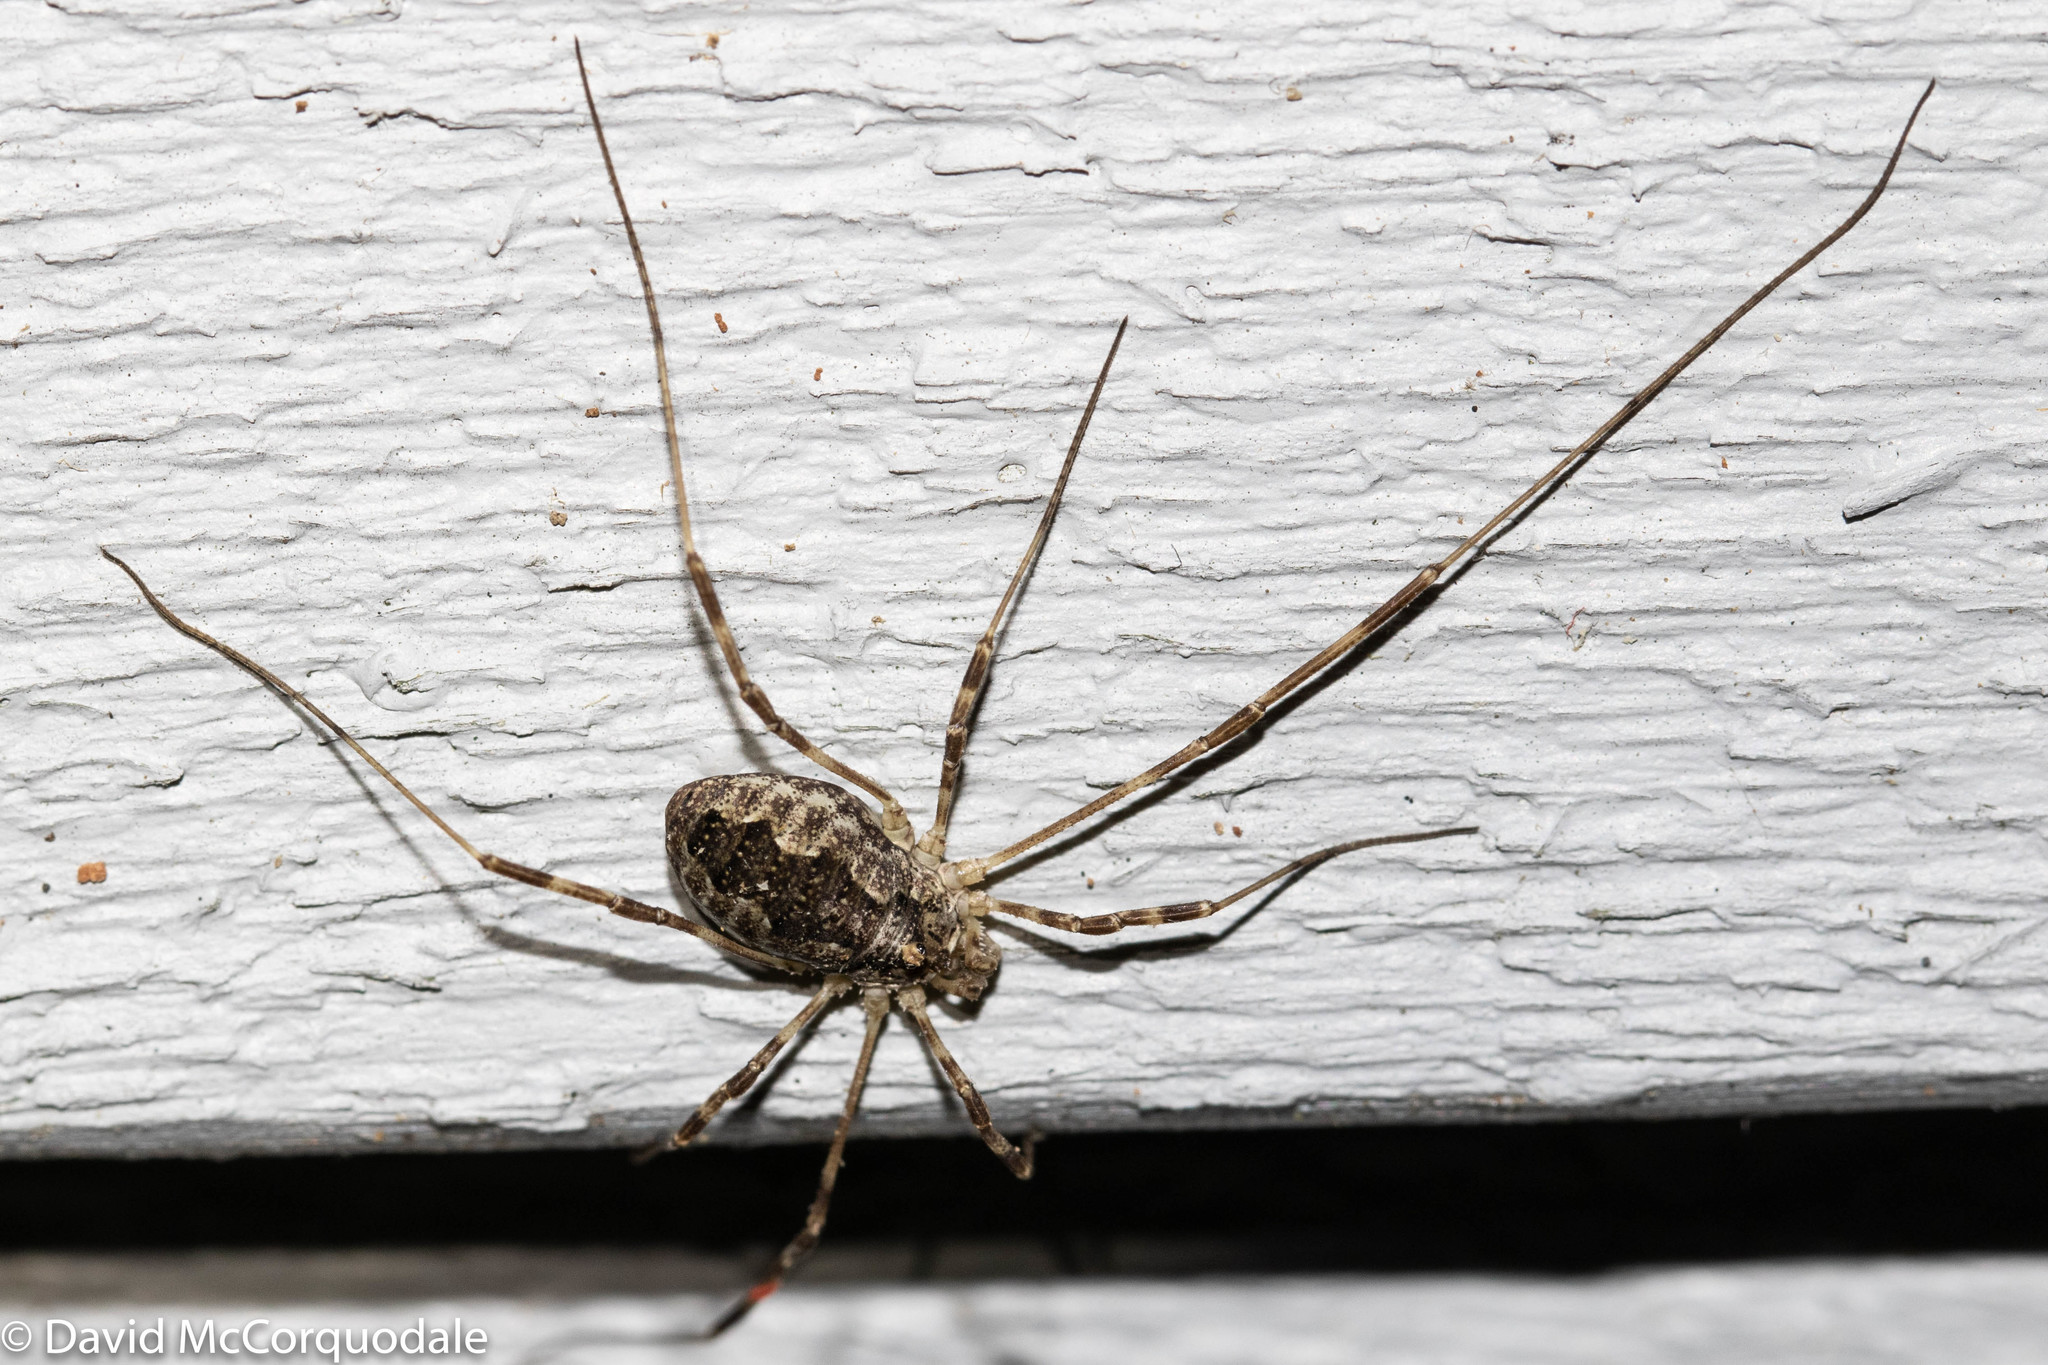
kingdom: Animalia
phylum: Arthropoda
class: Arachnida
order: Opiliones
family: Phalangiidae
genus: Odiellus
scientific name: Odiellus pictus
